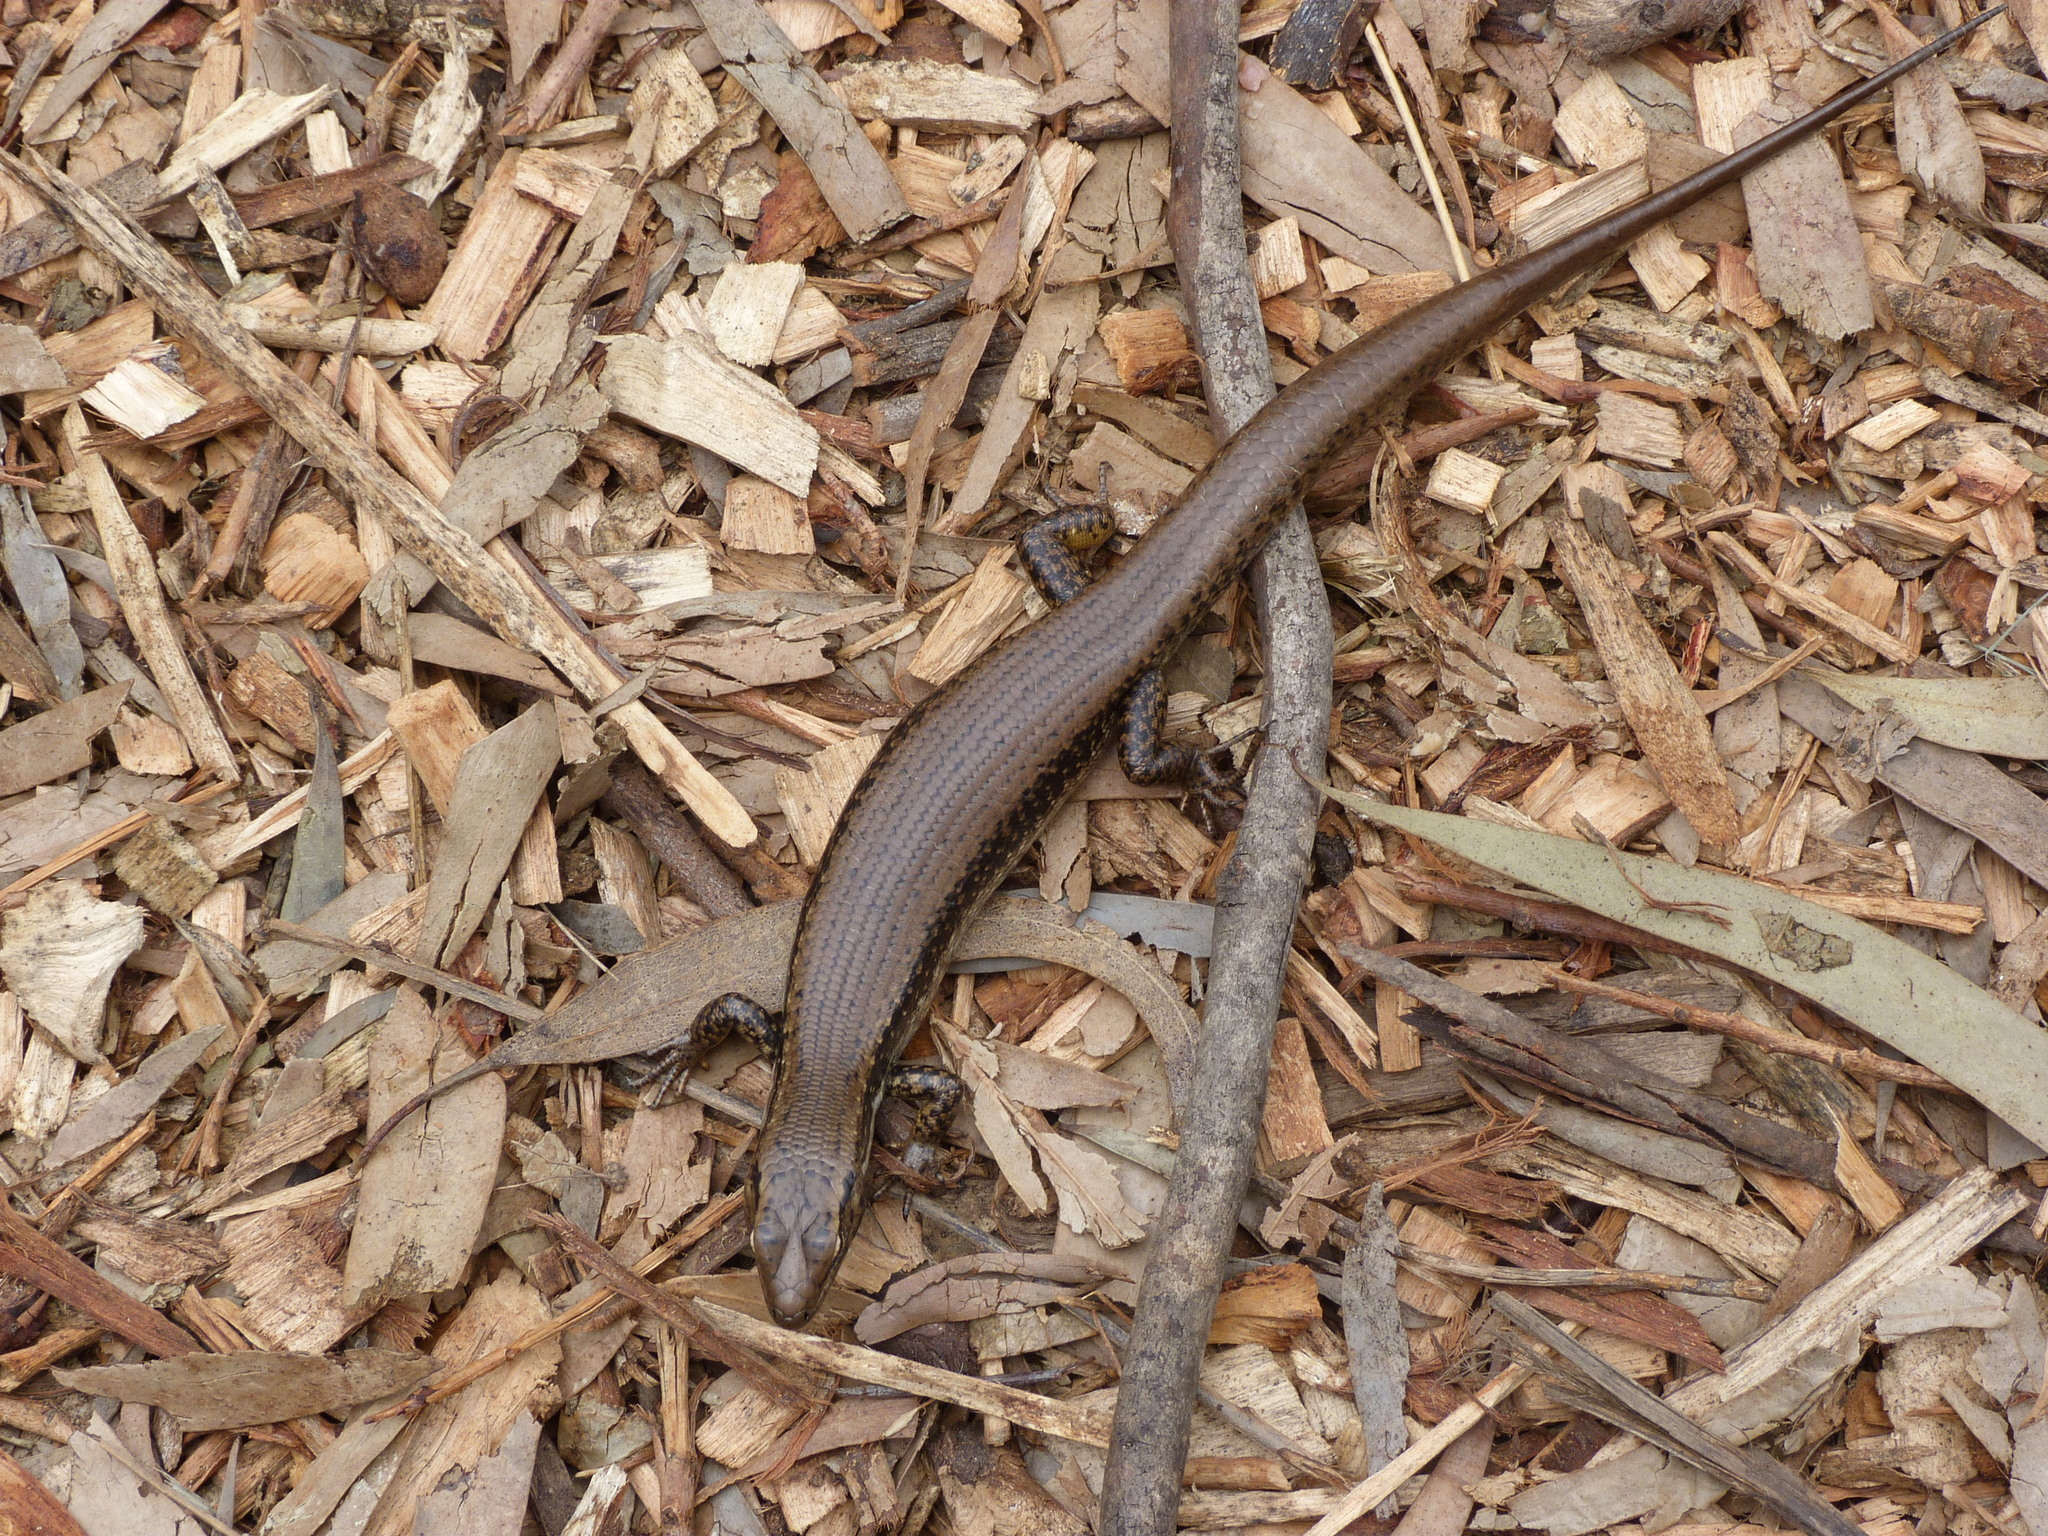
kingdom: Animalia
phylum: Chordata
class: Squamata
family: Scincidae
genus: Eulamprus
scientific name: Eulamprus tympanum
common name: Cool-temperate water-skink
